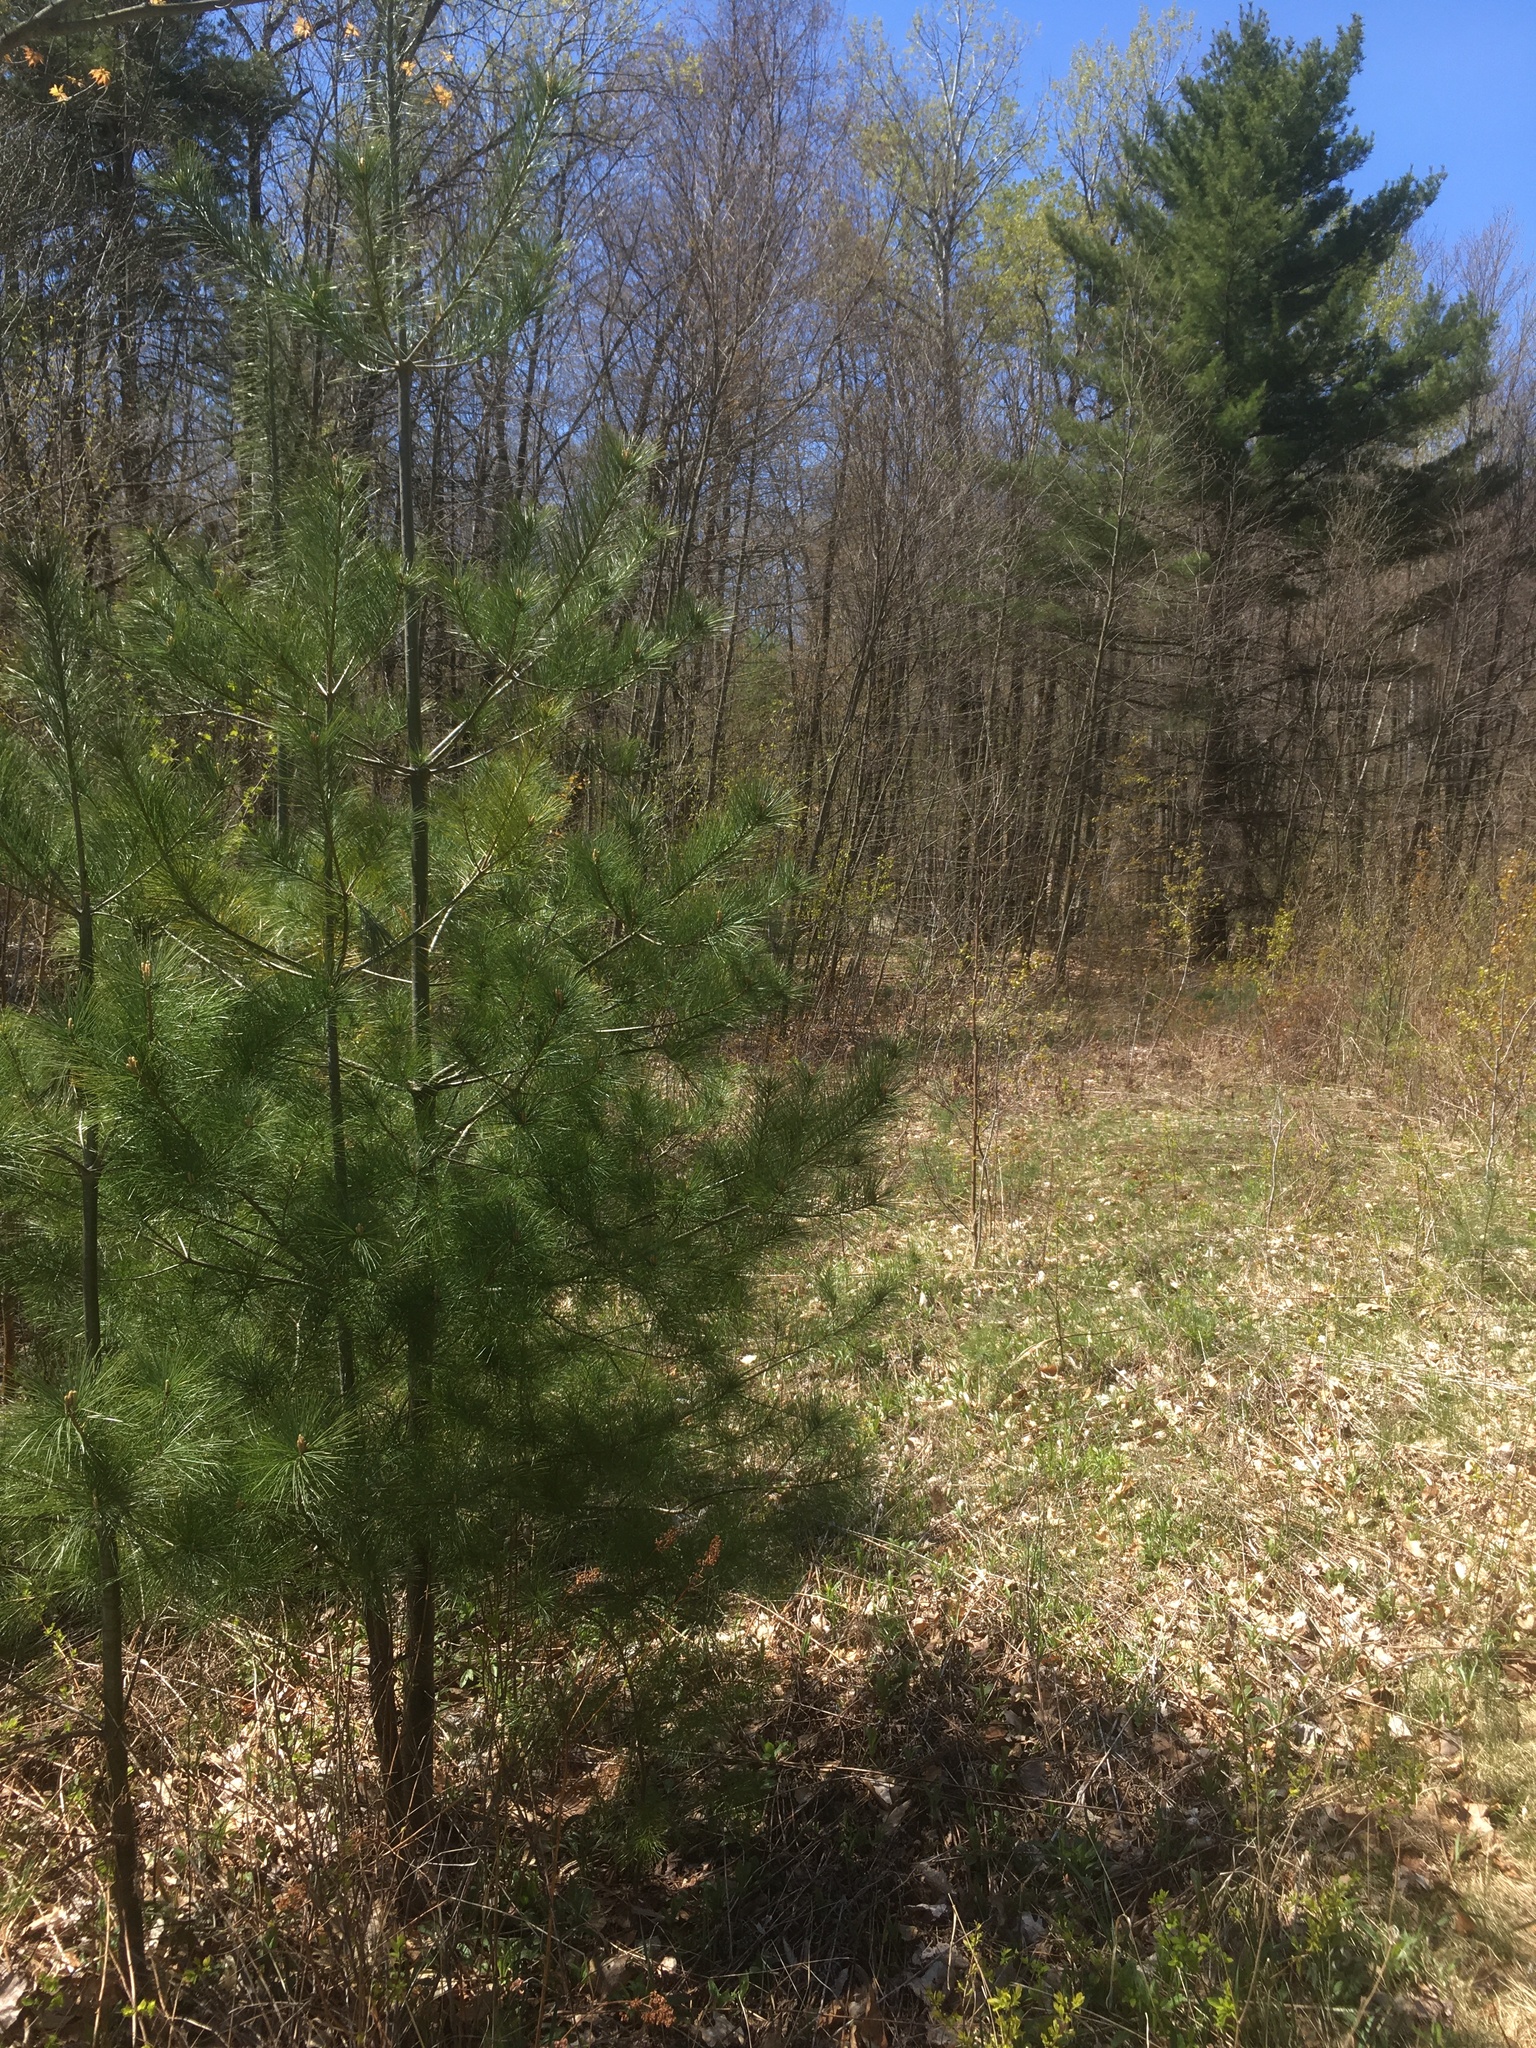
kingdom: Plantae
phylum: Tracheophyta
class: Pinopsida
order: Pinales
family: Pinaceae
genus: Pinus
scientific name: Pinus strobus
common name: Weymouth pine
